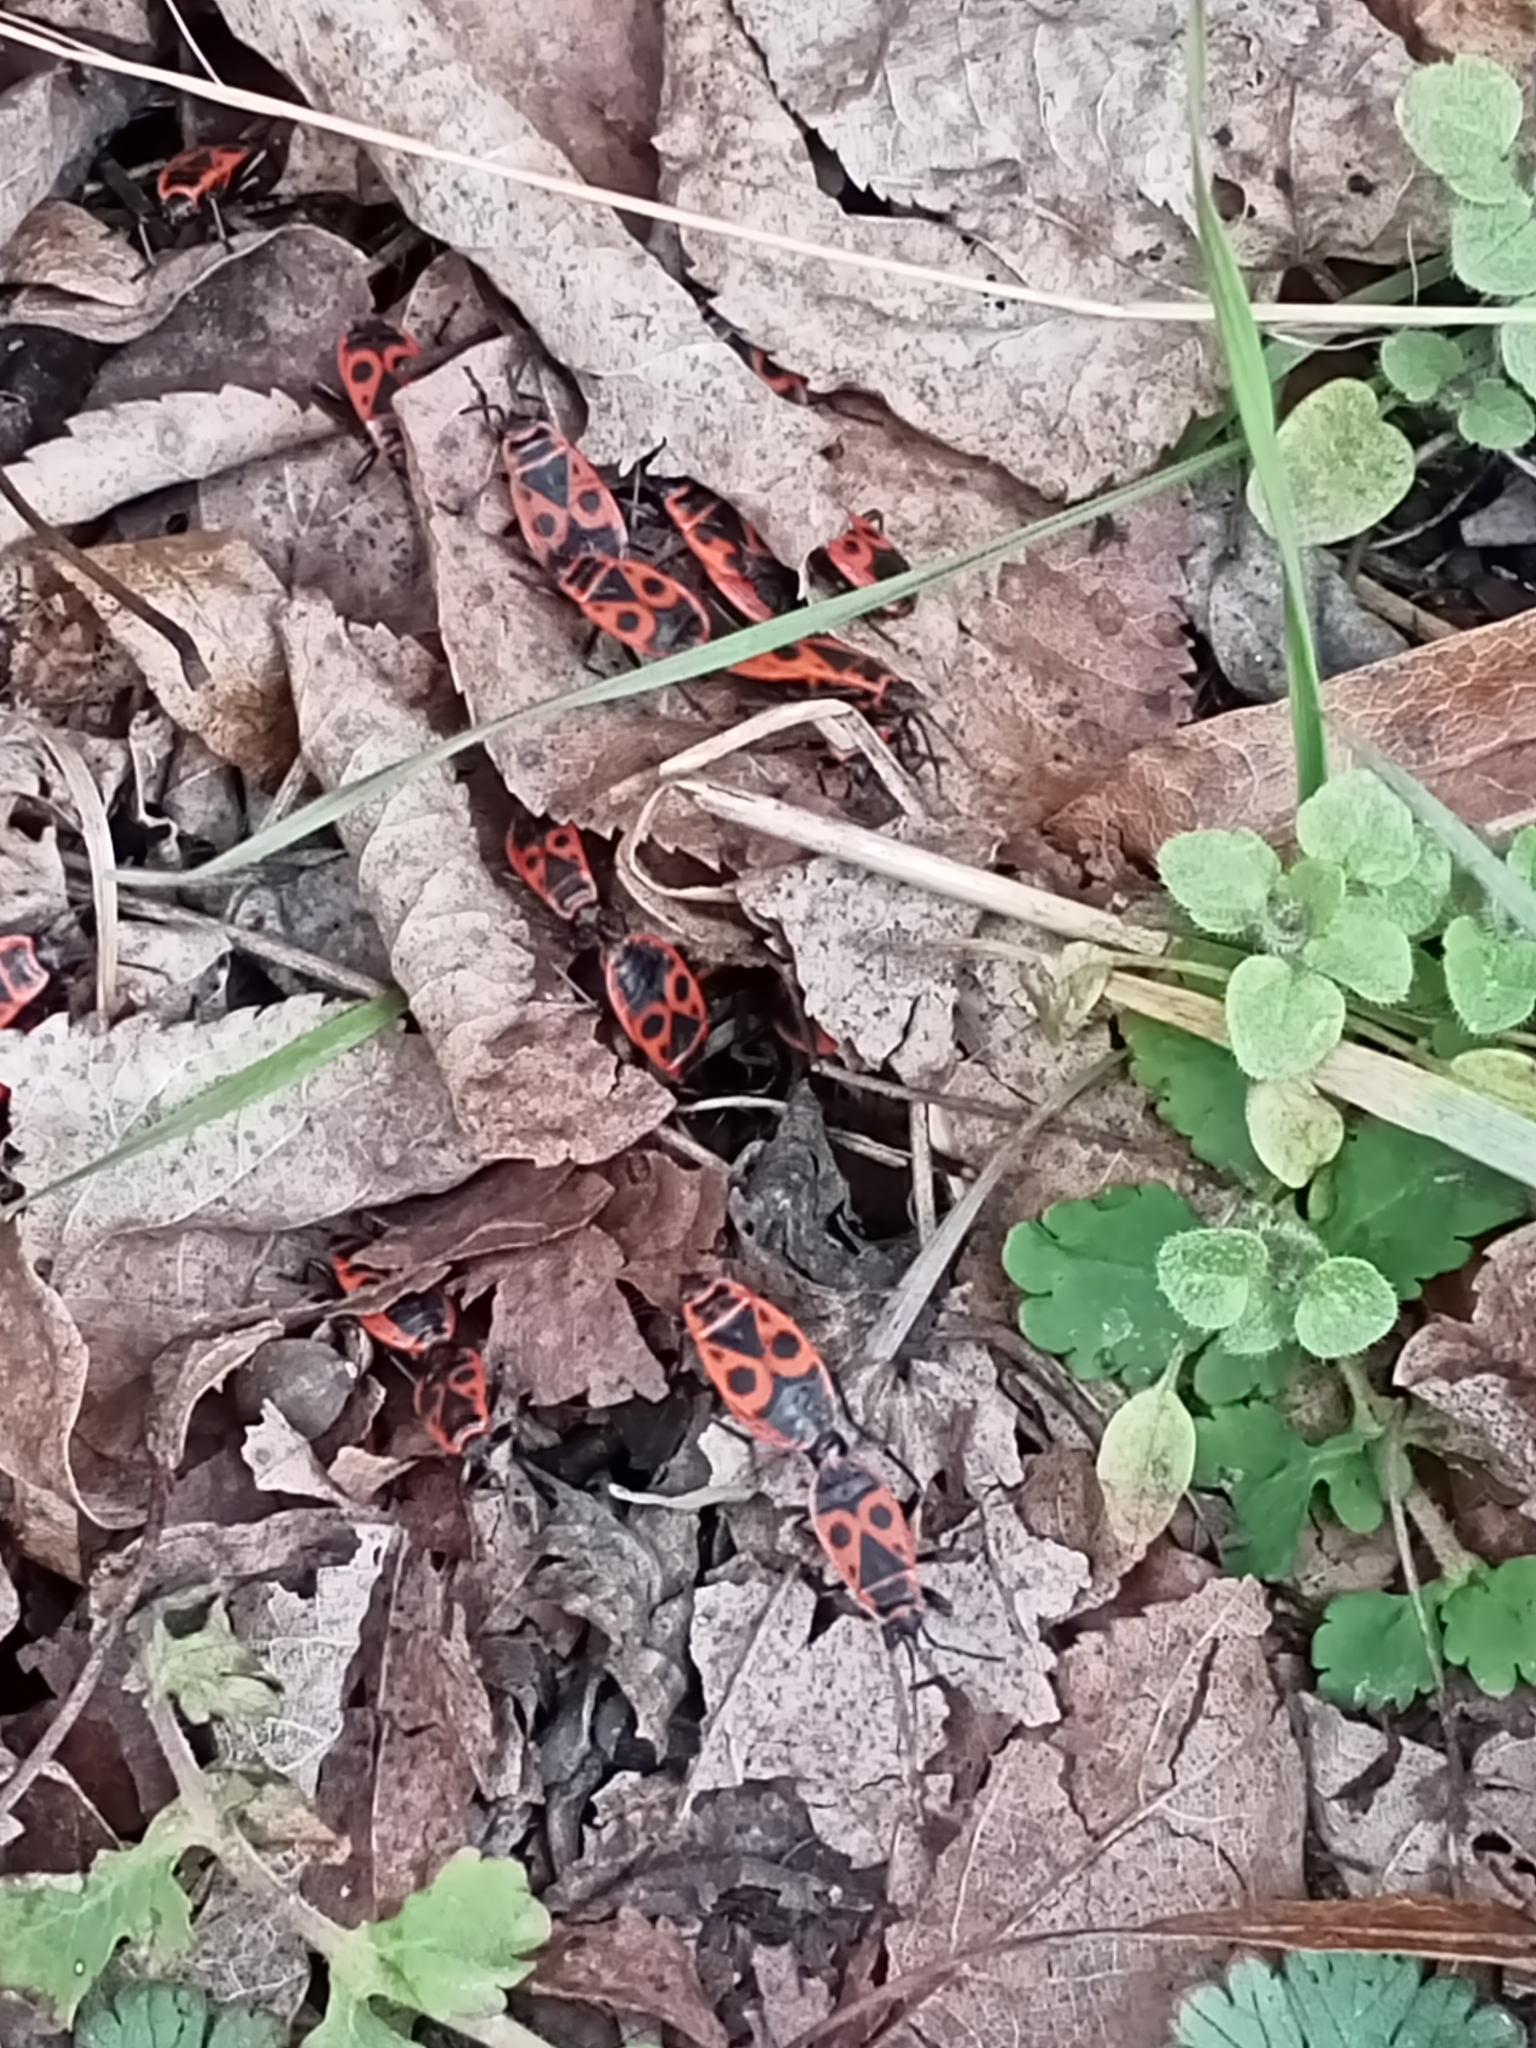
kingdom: Animalia
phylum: Arthropoda
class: Insecta
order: Hemiptera
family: Pyrrhocoridae
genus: Pyrrhocoris
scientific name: Pyrrhocoris apterus
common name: Firebug
